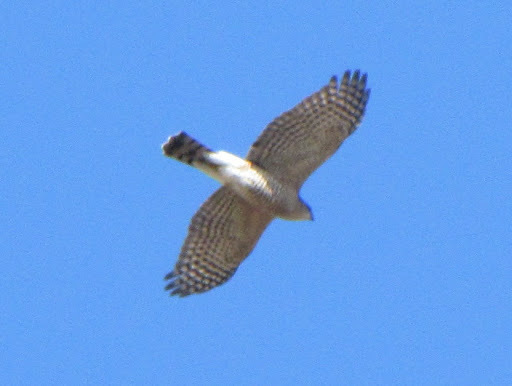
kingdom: Animalia
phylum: Chordata
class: Aves
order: Accipitriformes
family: Accipitridae
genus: Accipiter
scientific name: Accipiter striatus
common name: Sharp-shinned hawk
